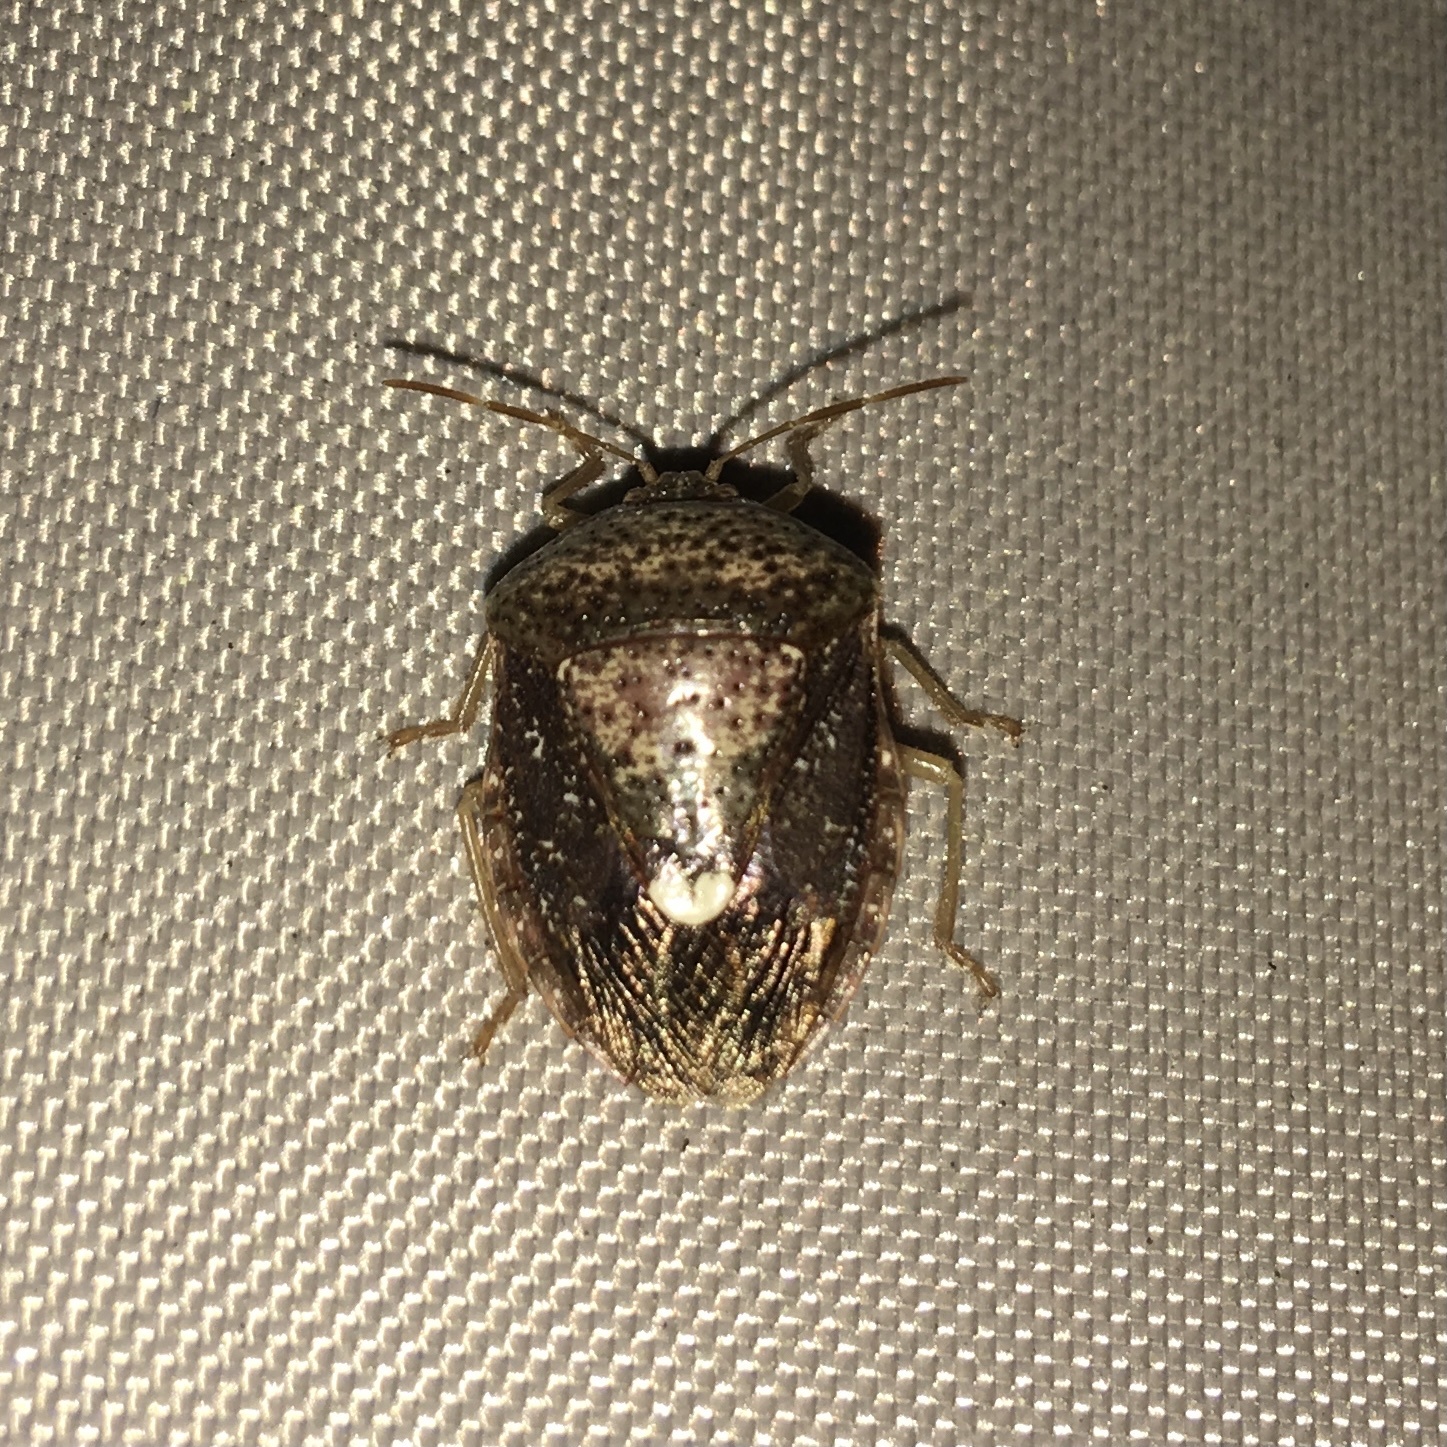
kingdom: Animalia
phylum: Arthropoda
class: Insecta
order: Hemiptera
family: Pentatomidae
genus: Edessa
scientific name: Edessa bifida
